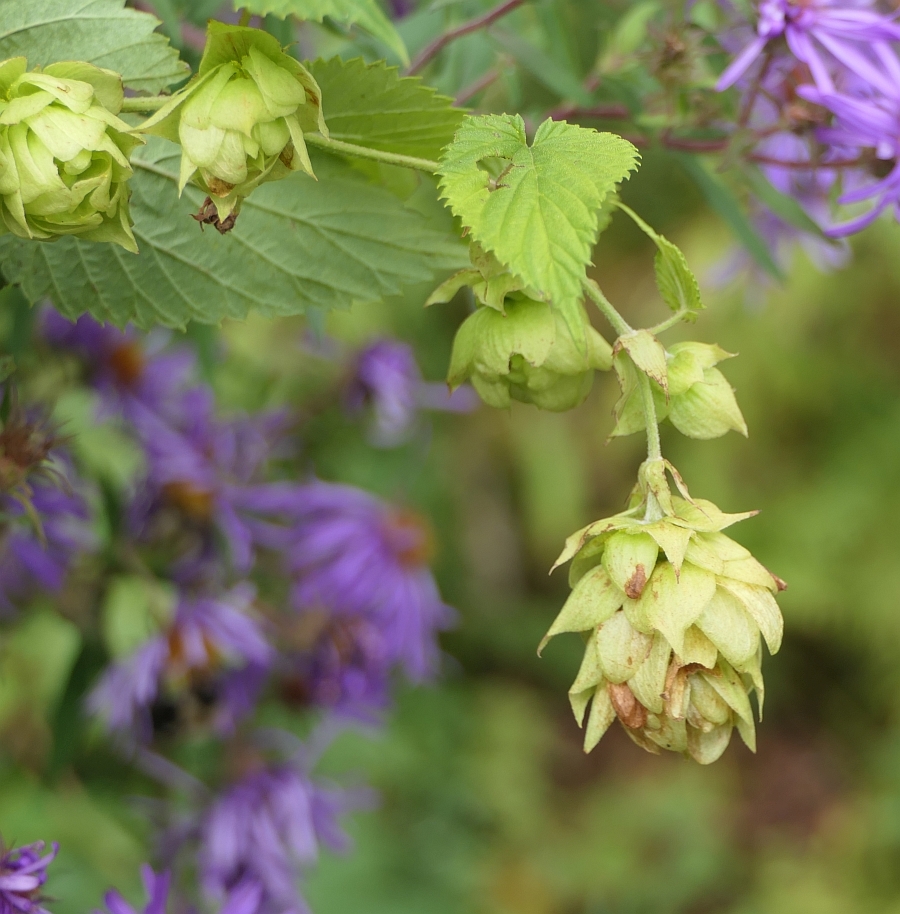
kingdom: Plantae
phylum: Tracheophyta
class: Magnoliopsida
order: Rosales
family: Cannabaceae
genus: Humulus
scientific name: Humulus lupulus
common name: Hop
